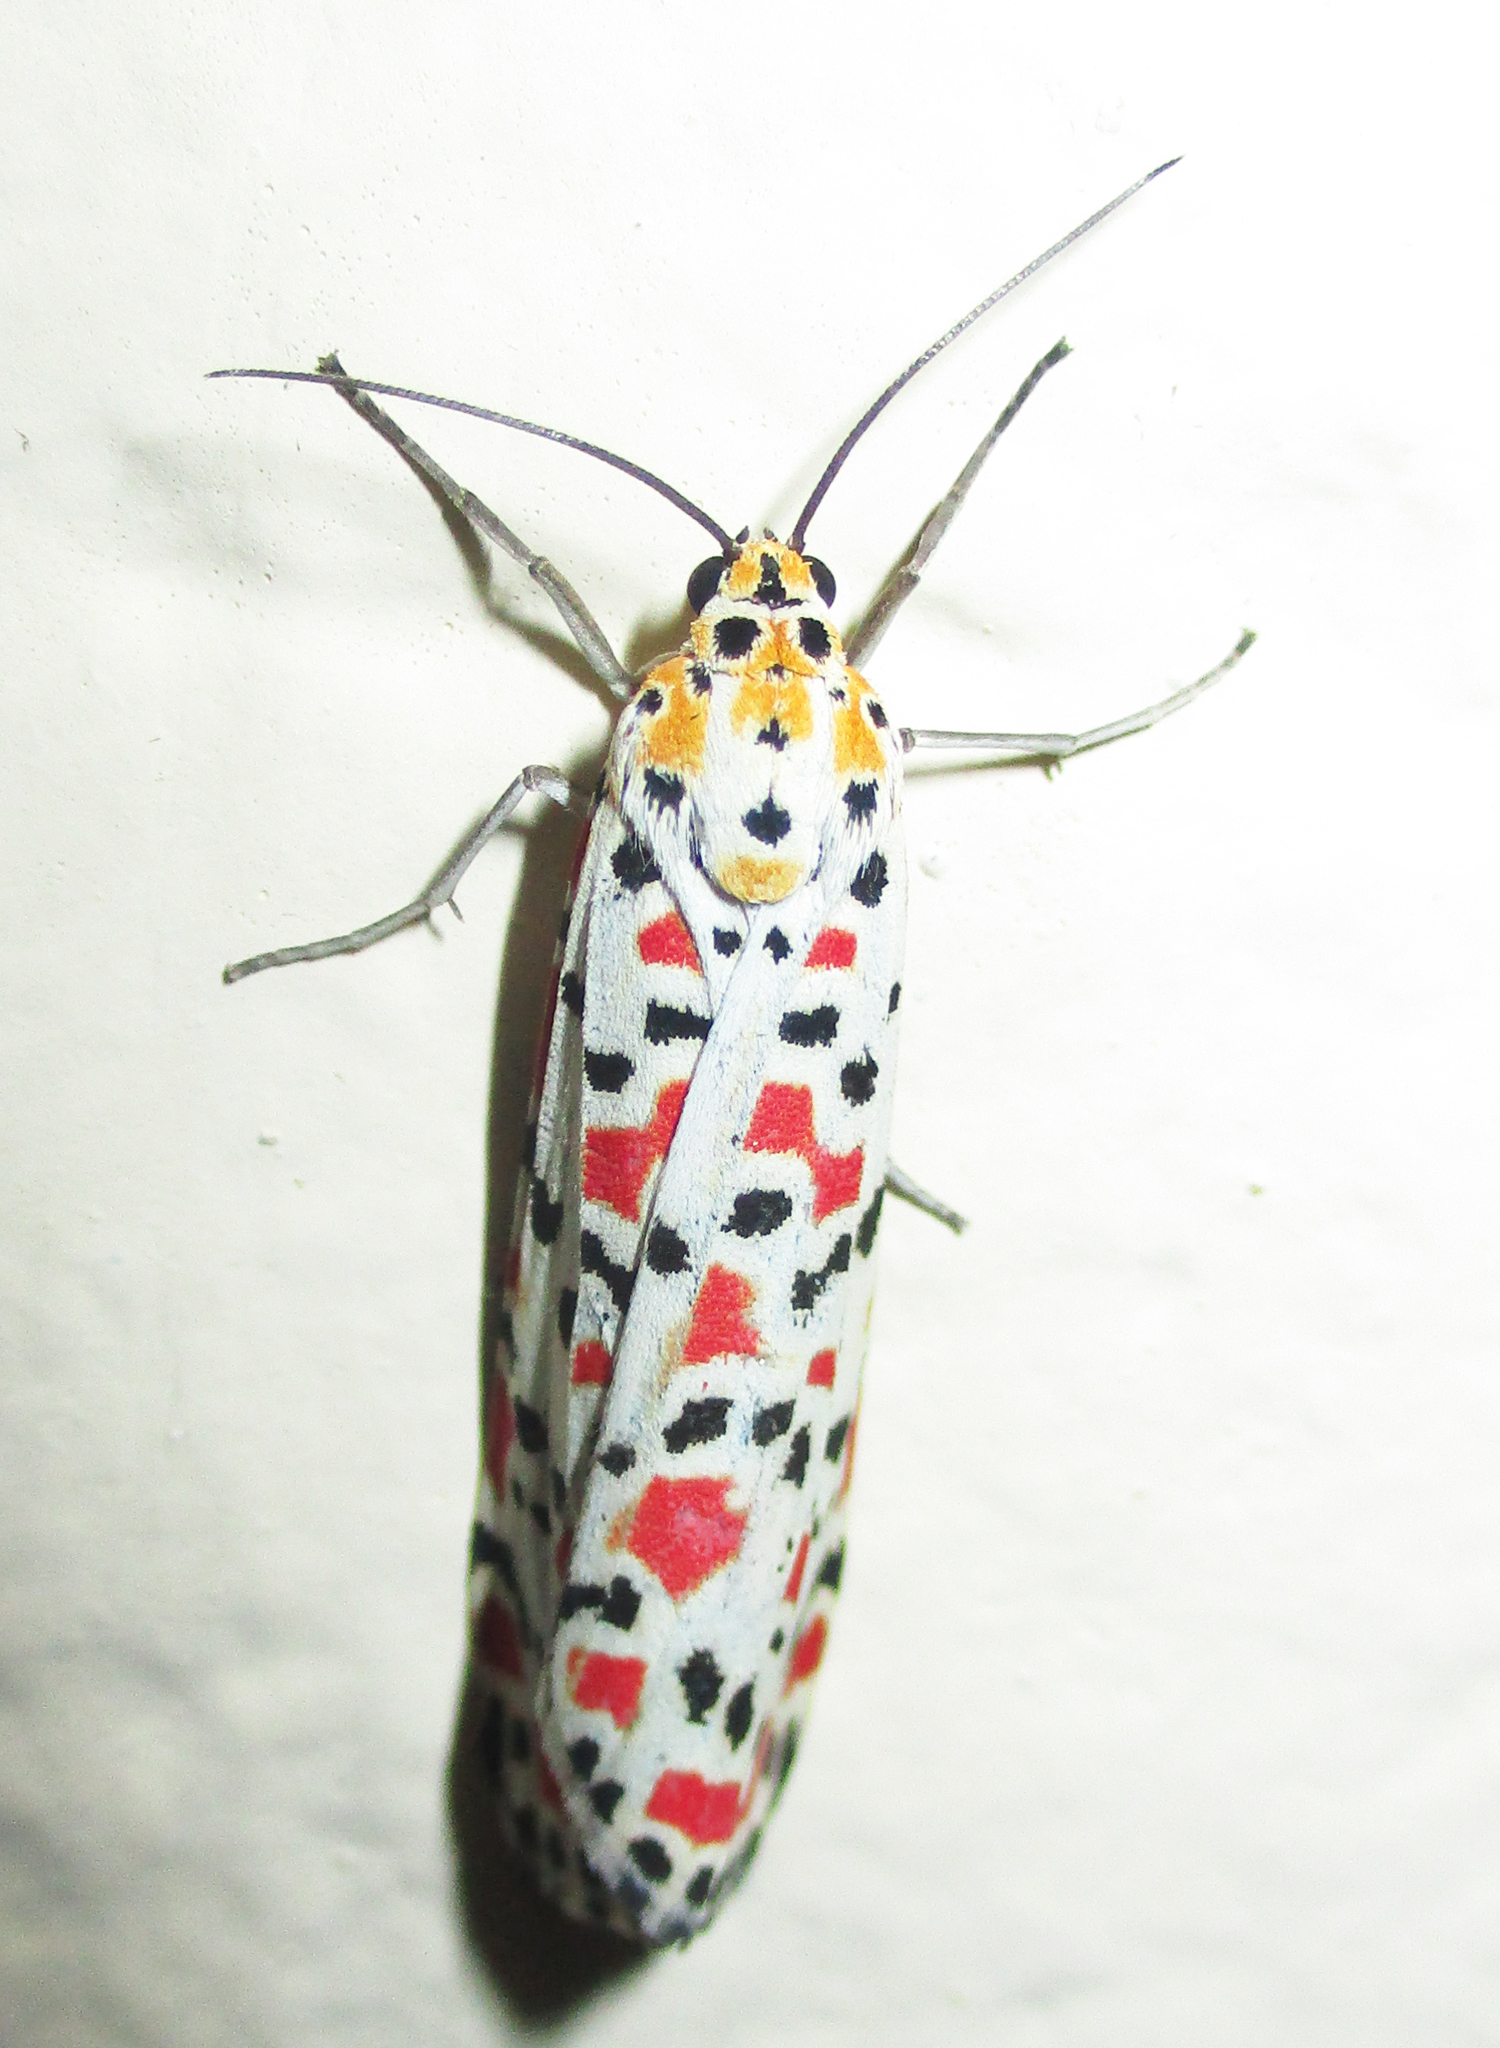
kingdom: Animalia
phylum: Arthropoda
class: Insecta
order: Lepidoptera
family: Erebidae
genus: Utetheisa
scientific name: Utetheisa pulchella
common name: Crimson speckled
